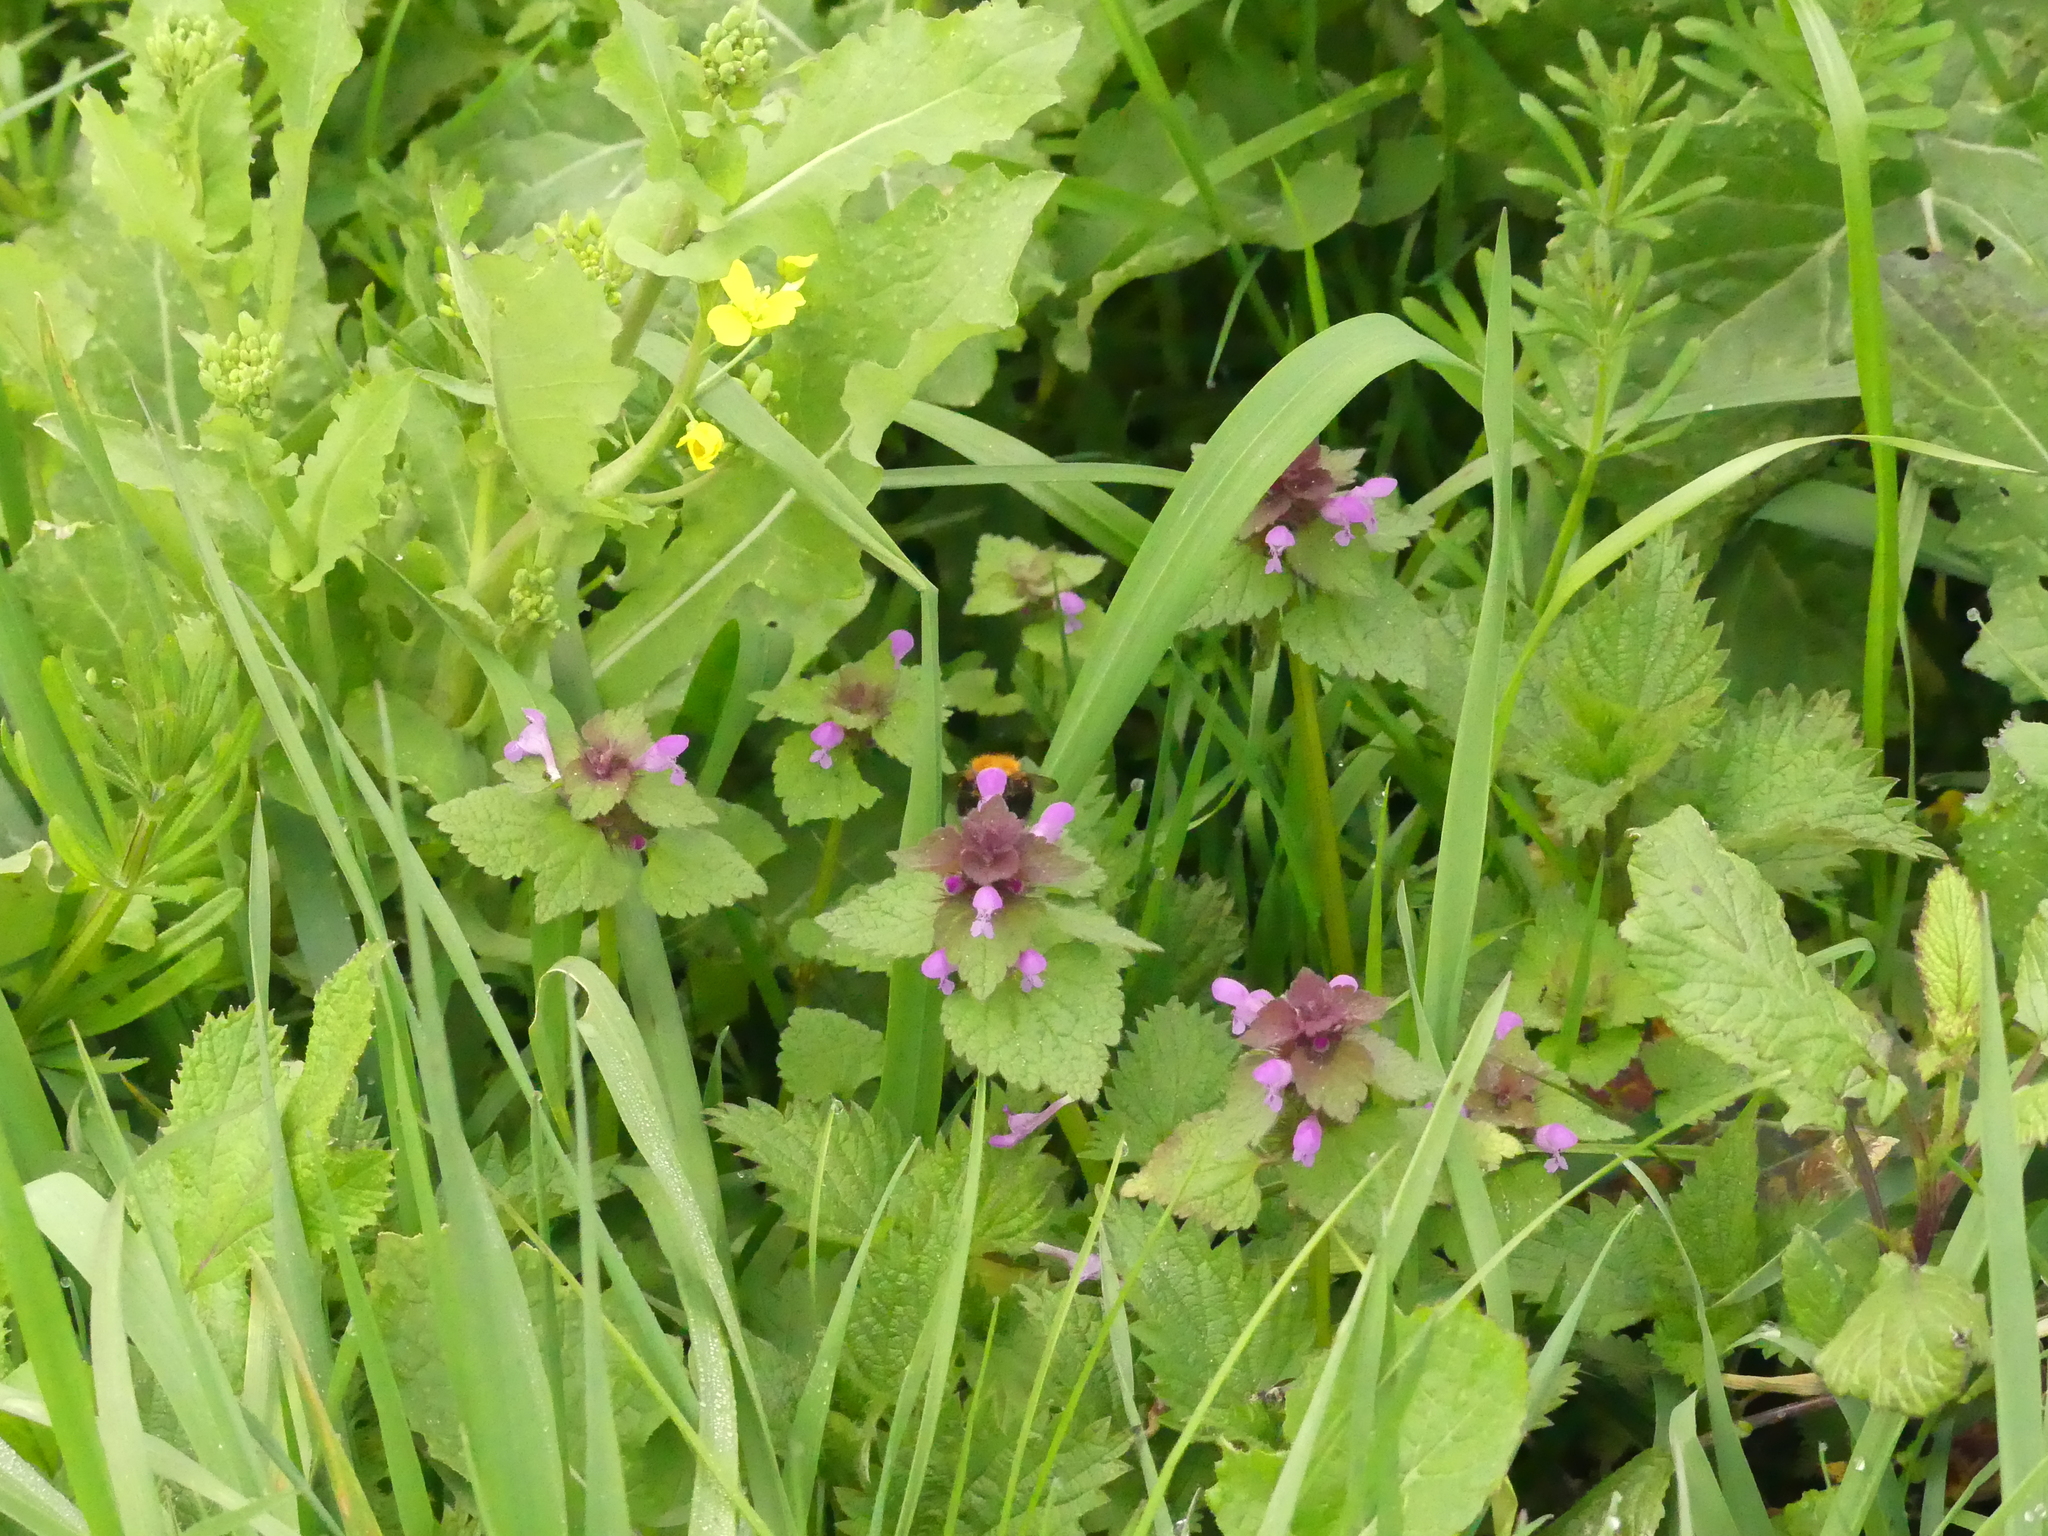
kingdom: Plantae
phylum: Tracheophyta
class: Magnoliopsida
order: Lamiales
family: Lamiaceae
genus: Lamium
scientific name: Lamium purpureum
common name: Red dead-nettle
